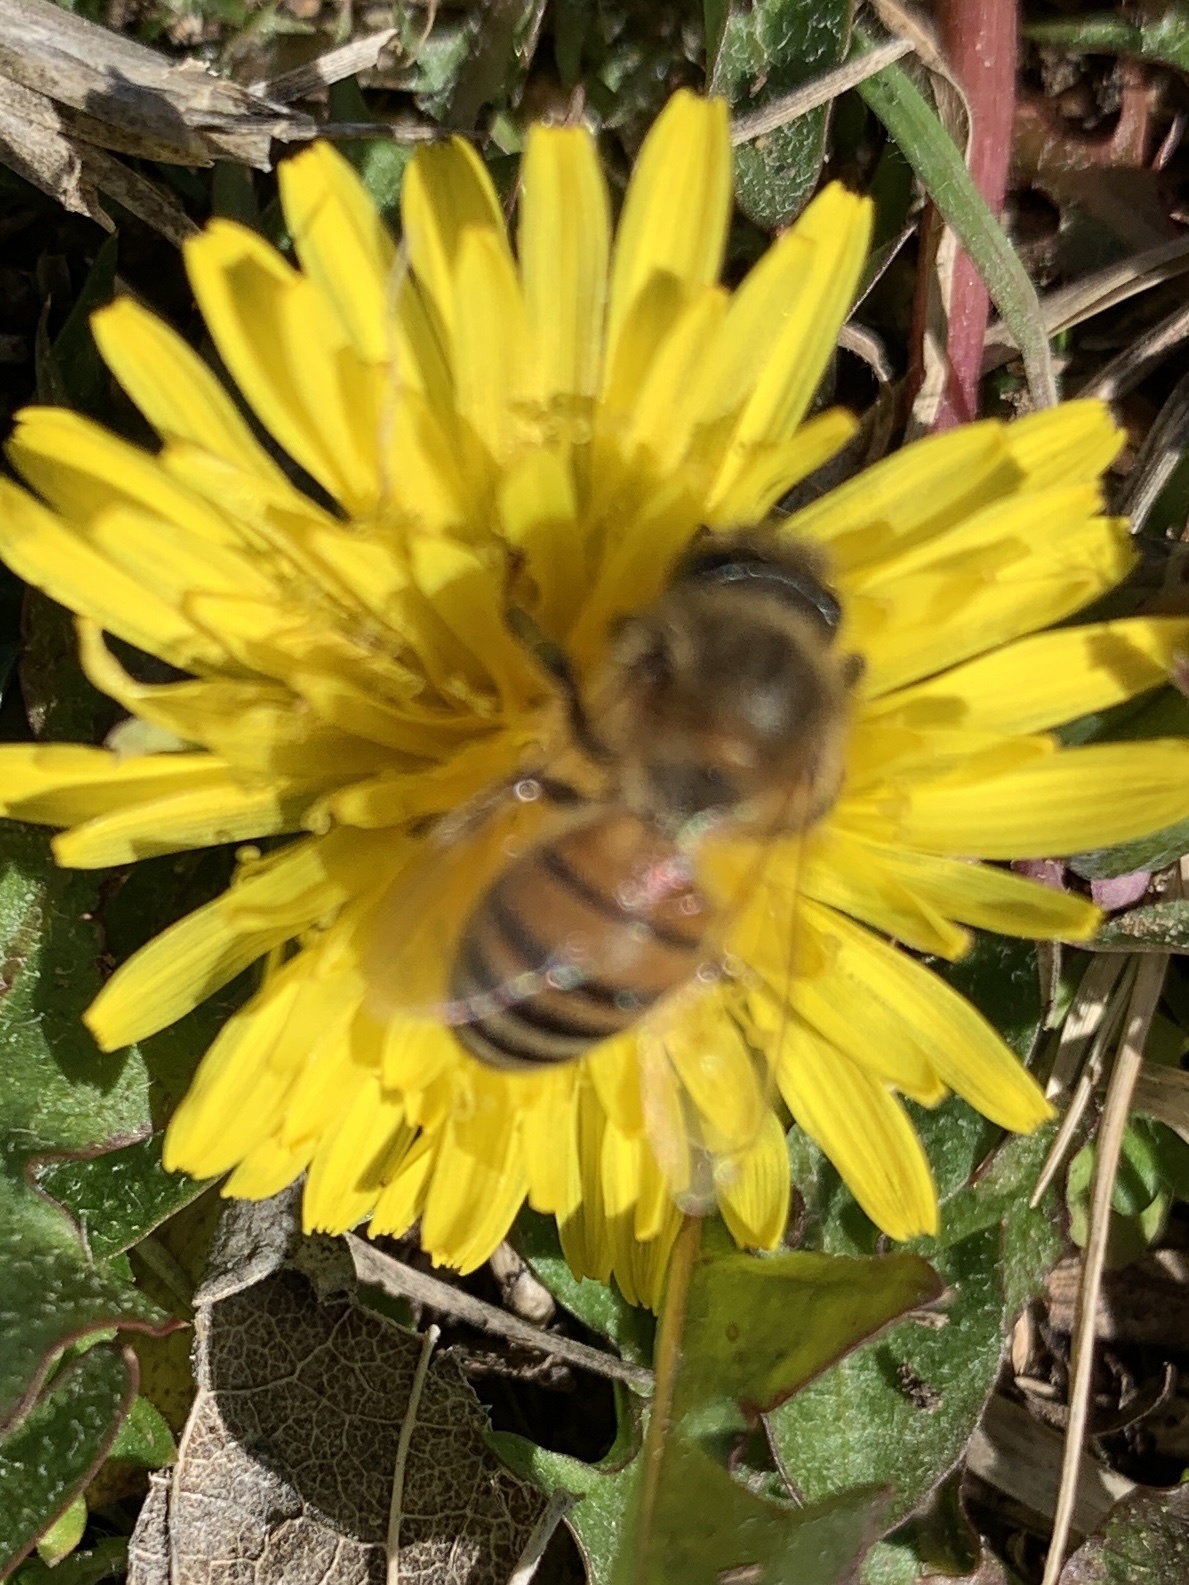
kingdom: Animalia
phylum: Arthropoda
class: Insecta
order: Hymenoptera
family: Apidae
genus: Apis
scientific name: Apis mellifera
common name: Honey bee
